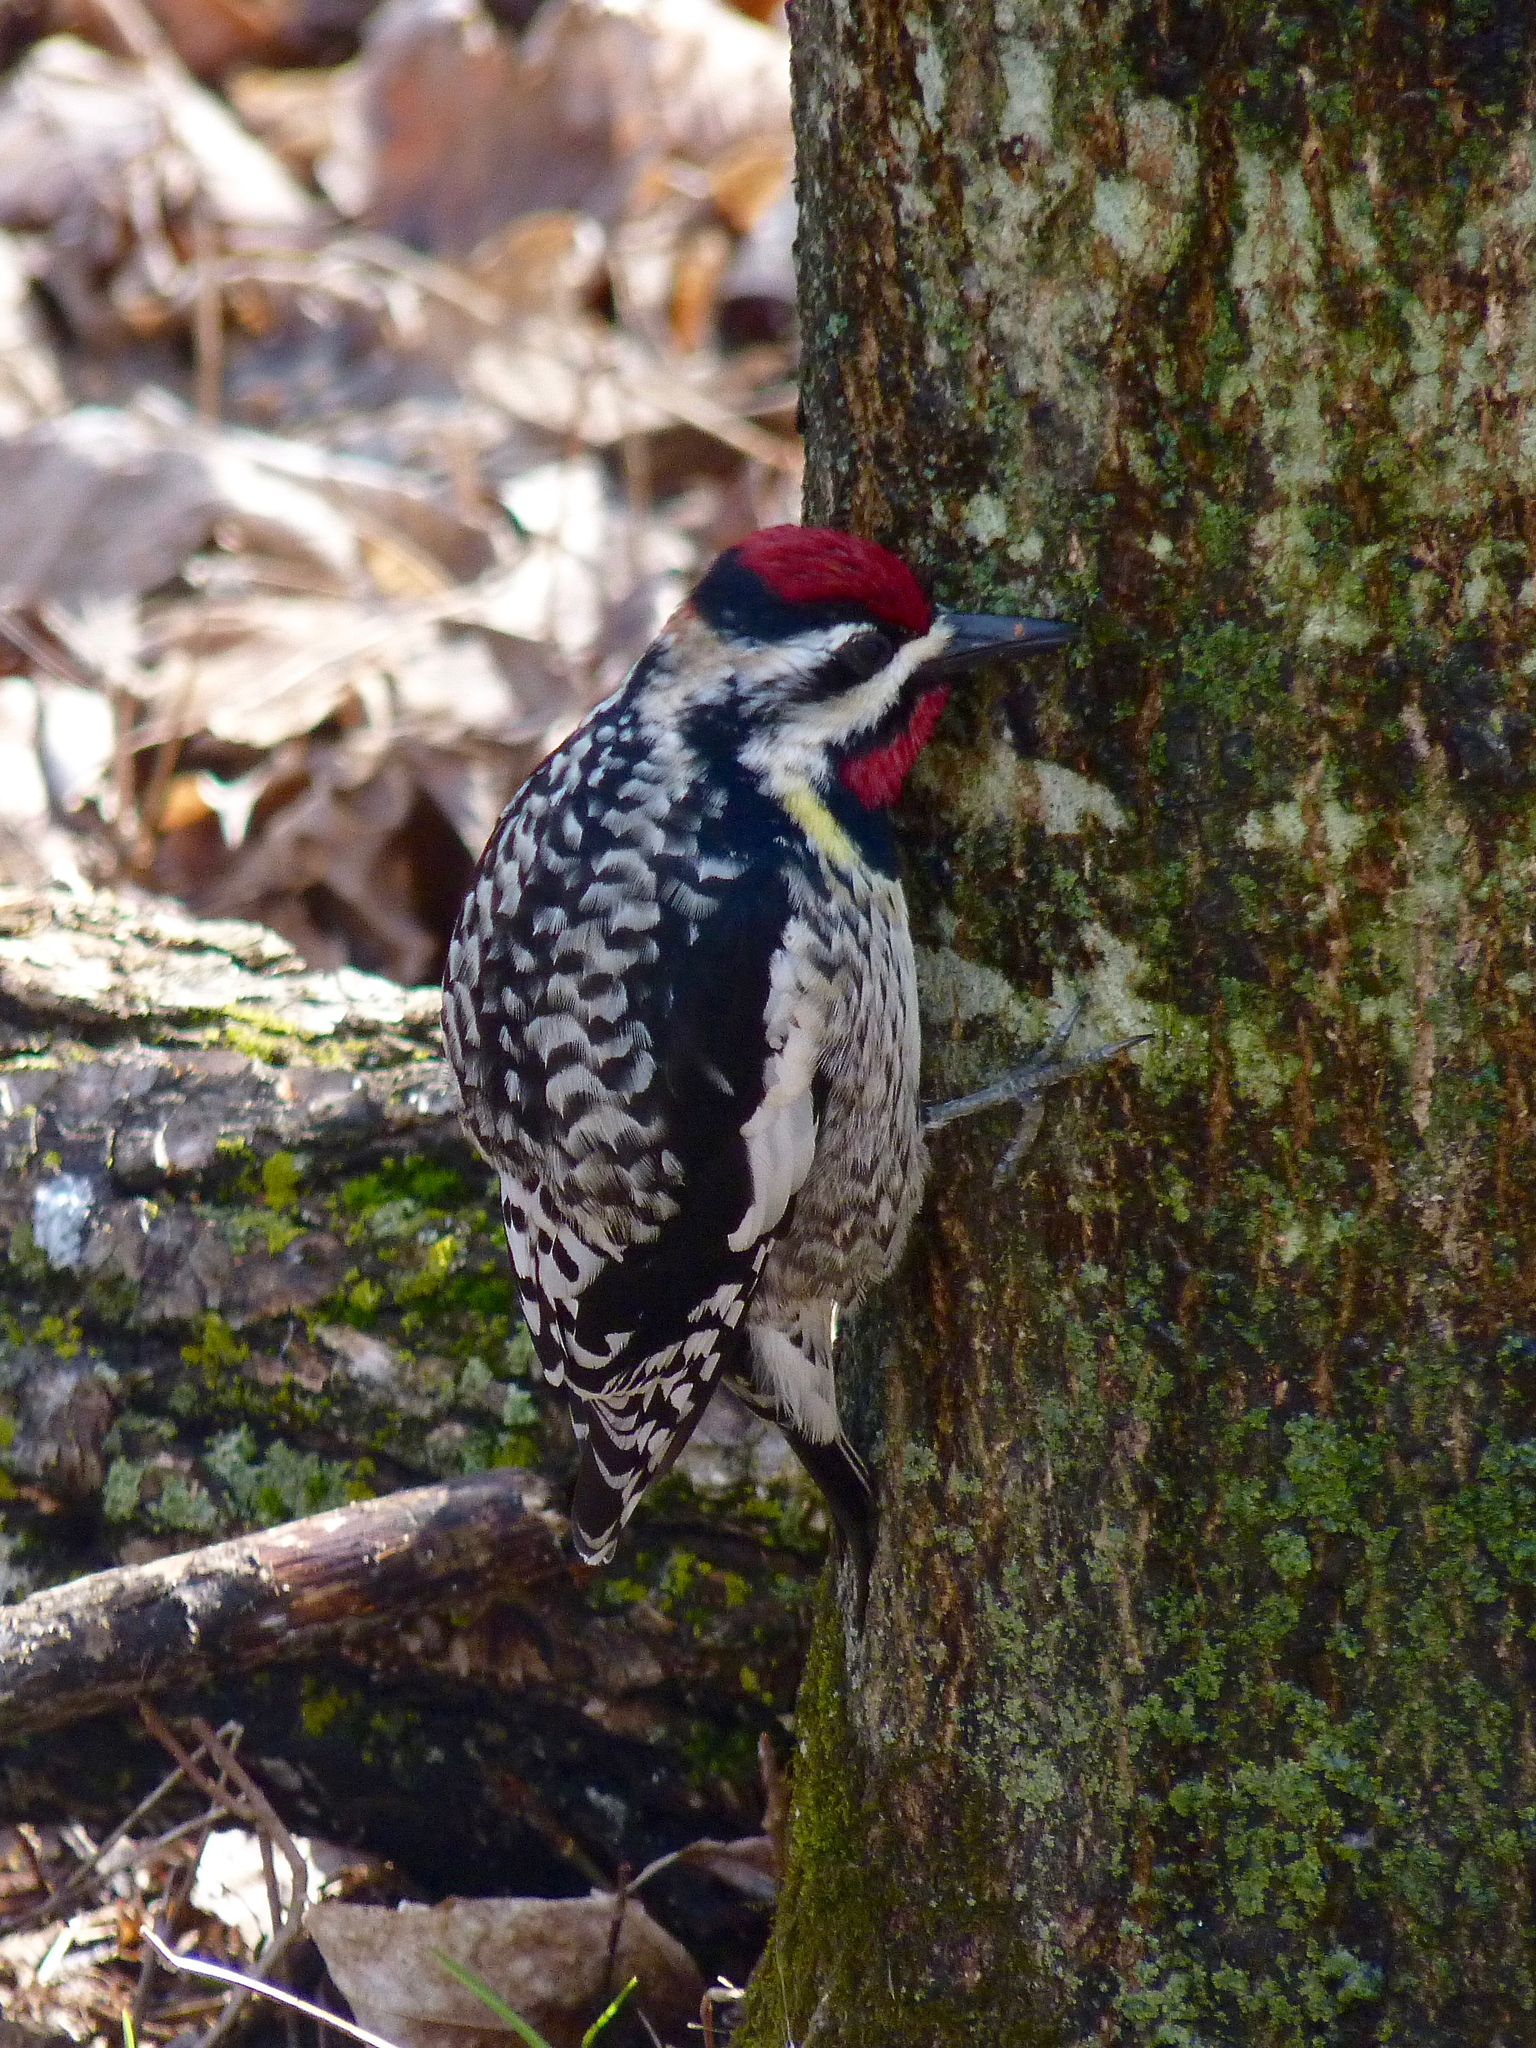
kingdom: Animalia
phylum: Chordata
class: Aves
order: Piciformes
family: Picidae
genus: Sphyrapicus
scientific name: Sphyrapicus varius
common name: Yellow-bellied sapsucker
